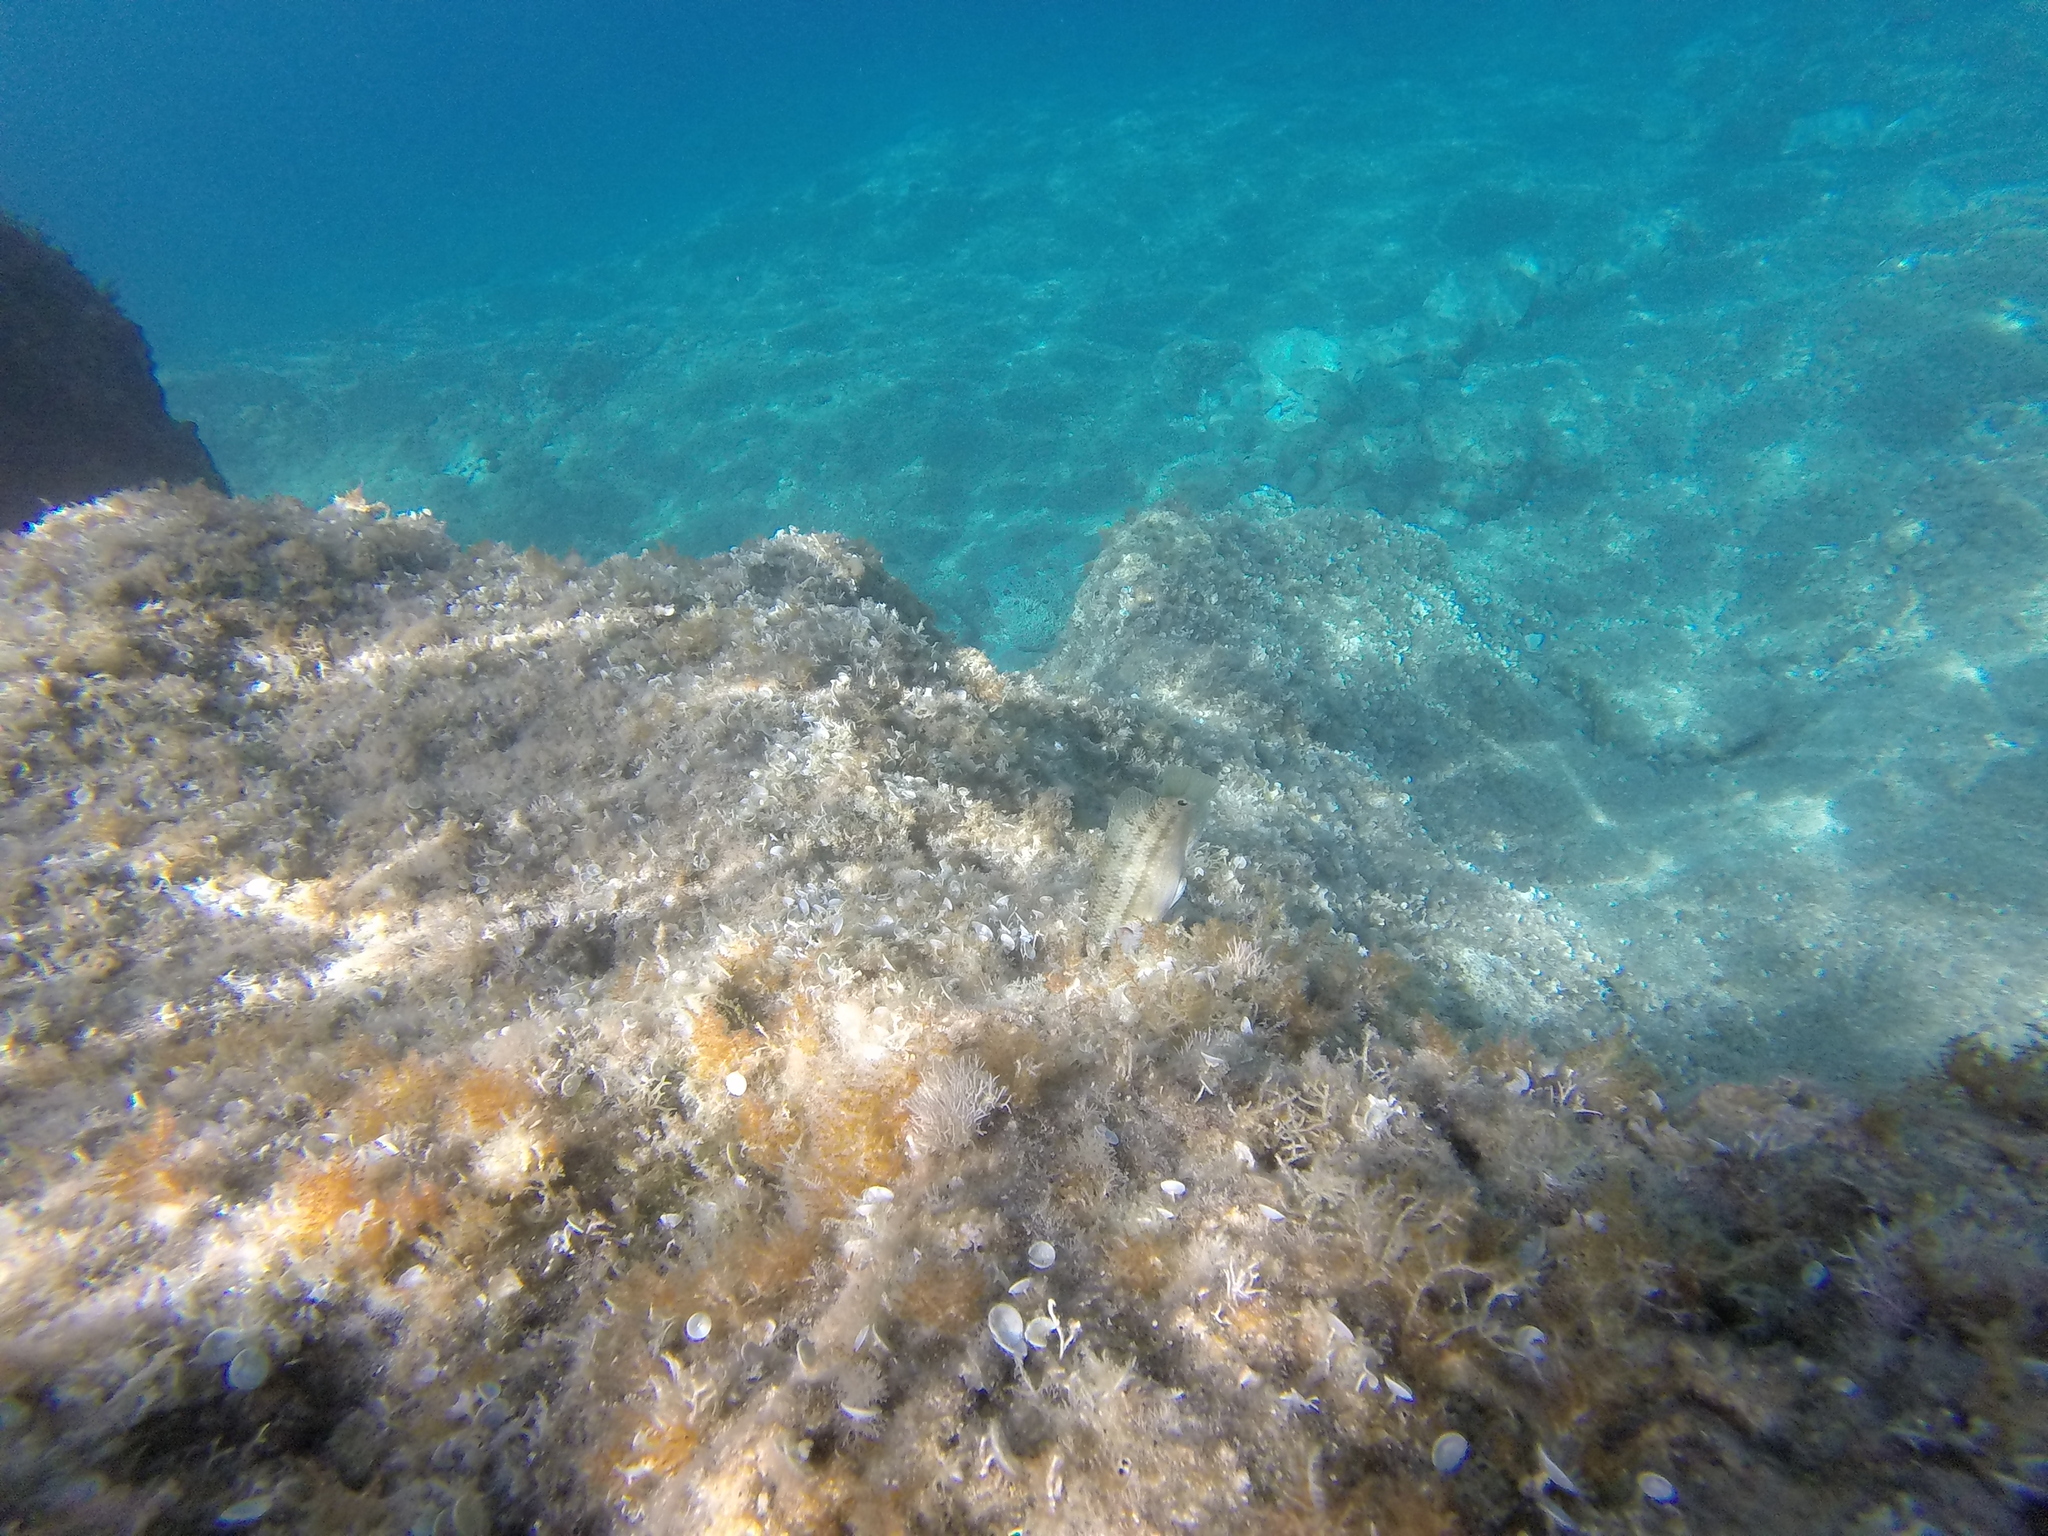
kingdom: Animalia
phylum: Chordata
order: Perciformes
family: Labridae
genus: Symphodus
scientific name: Symphodus tinca
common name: Peacock wrasse
